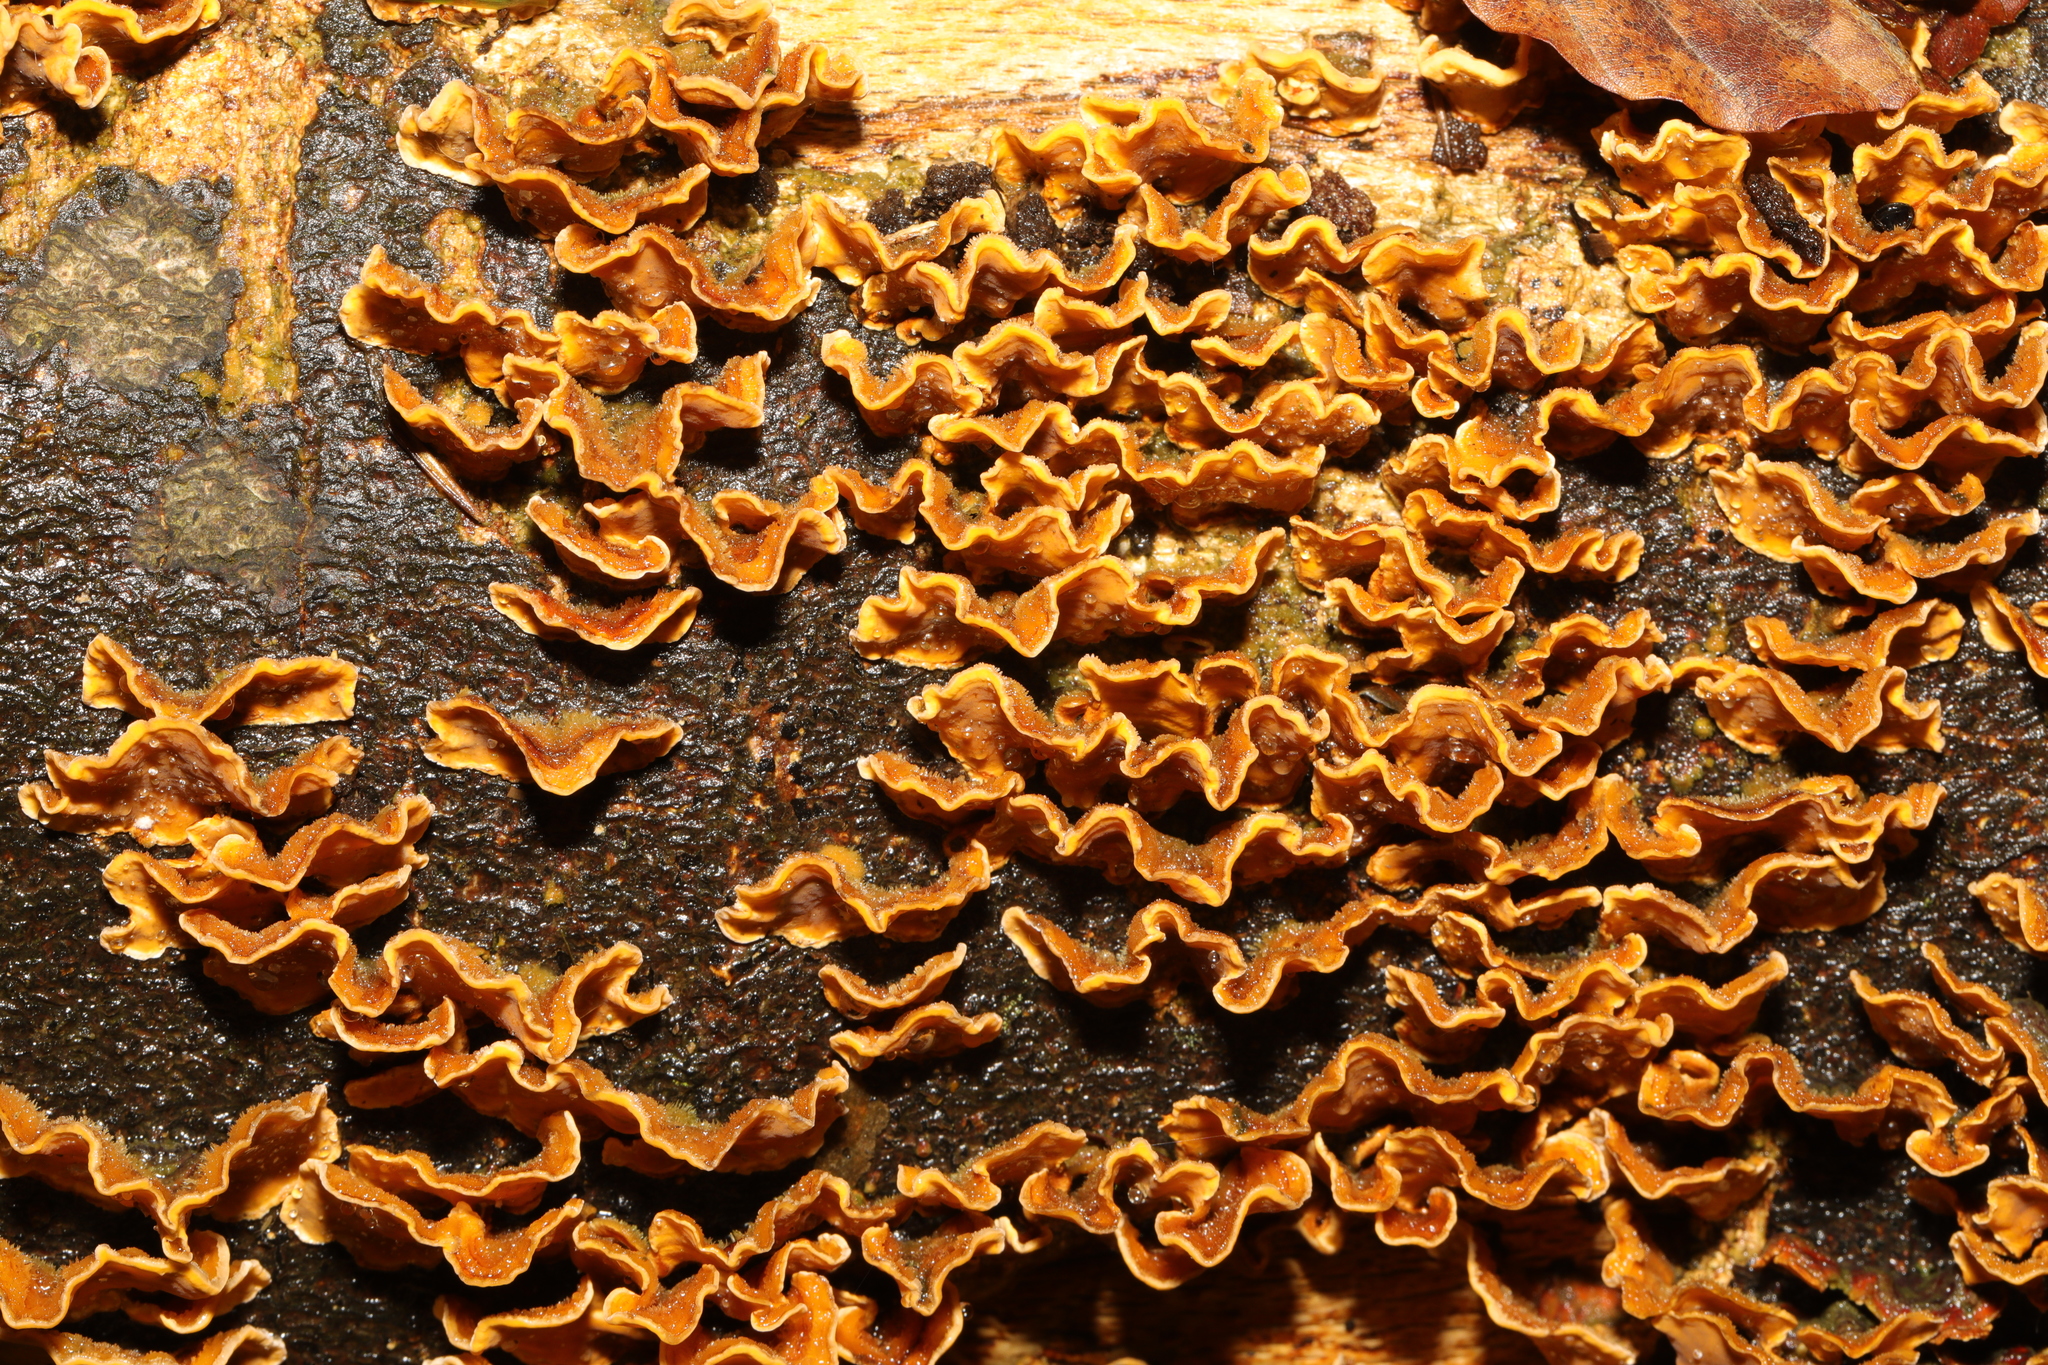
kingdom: Fungi
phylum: Basidiomycota
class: Agaricomycetes
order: Russulales
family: Stereaceae
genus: Stereum
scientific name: Stereum hirsutum
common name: Hairy curtain crust
